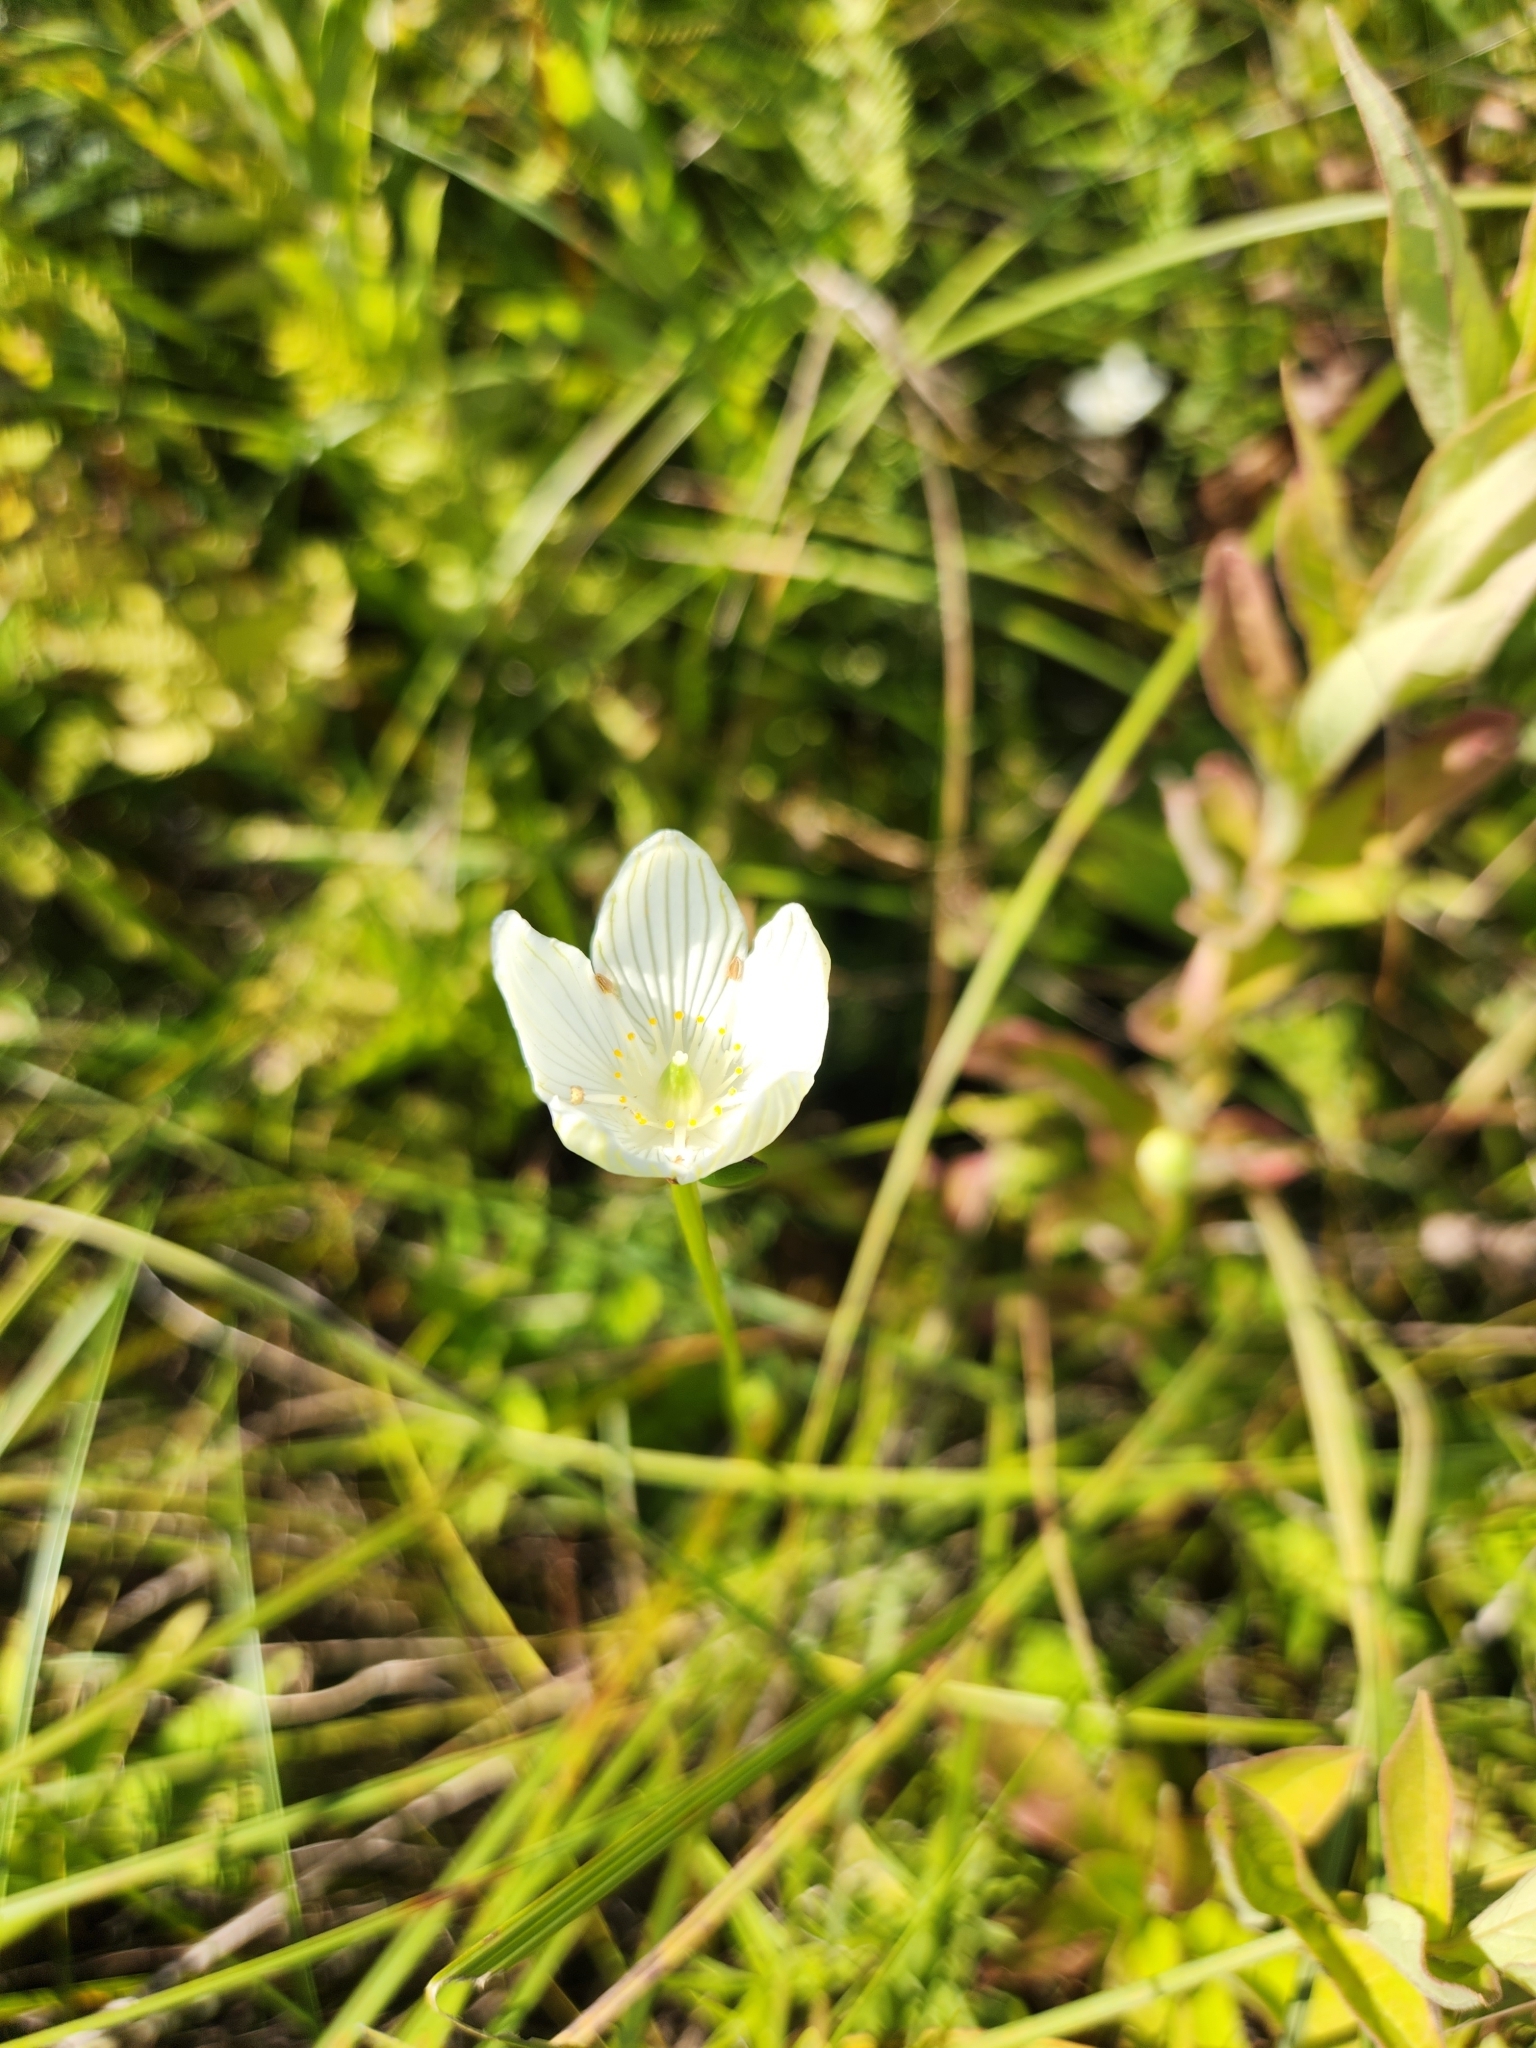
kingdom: Plantae
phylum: Tracheophyta
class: Magnoliopsida
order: Celastrales
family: Parnassiaceae
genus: Parnassia
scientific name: Parnassia glauca
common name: American grass-of-parnassus
